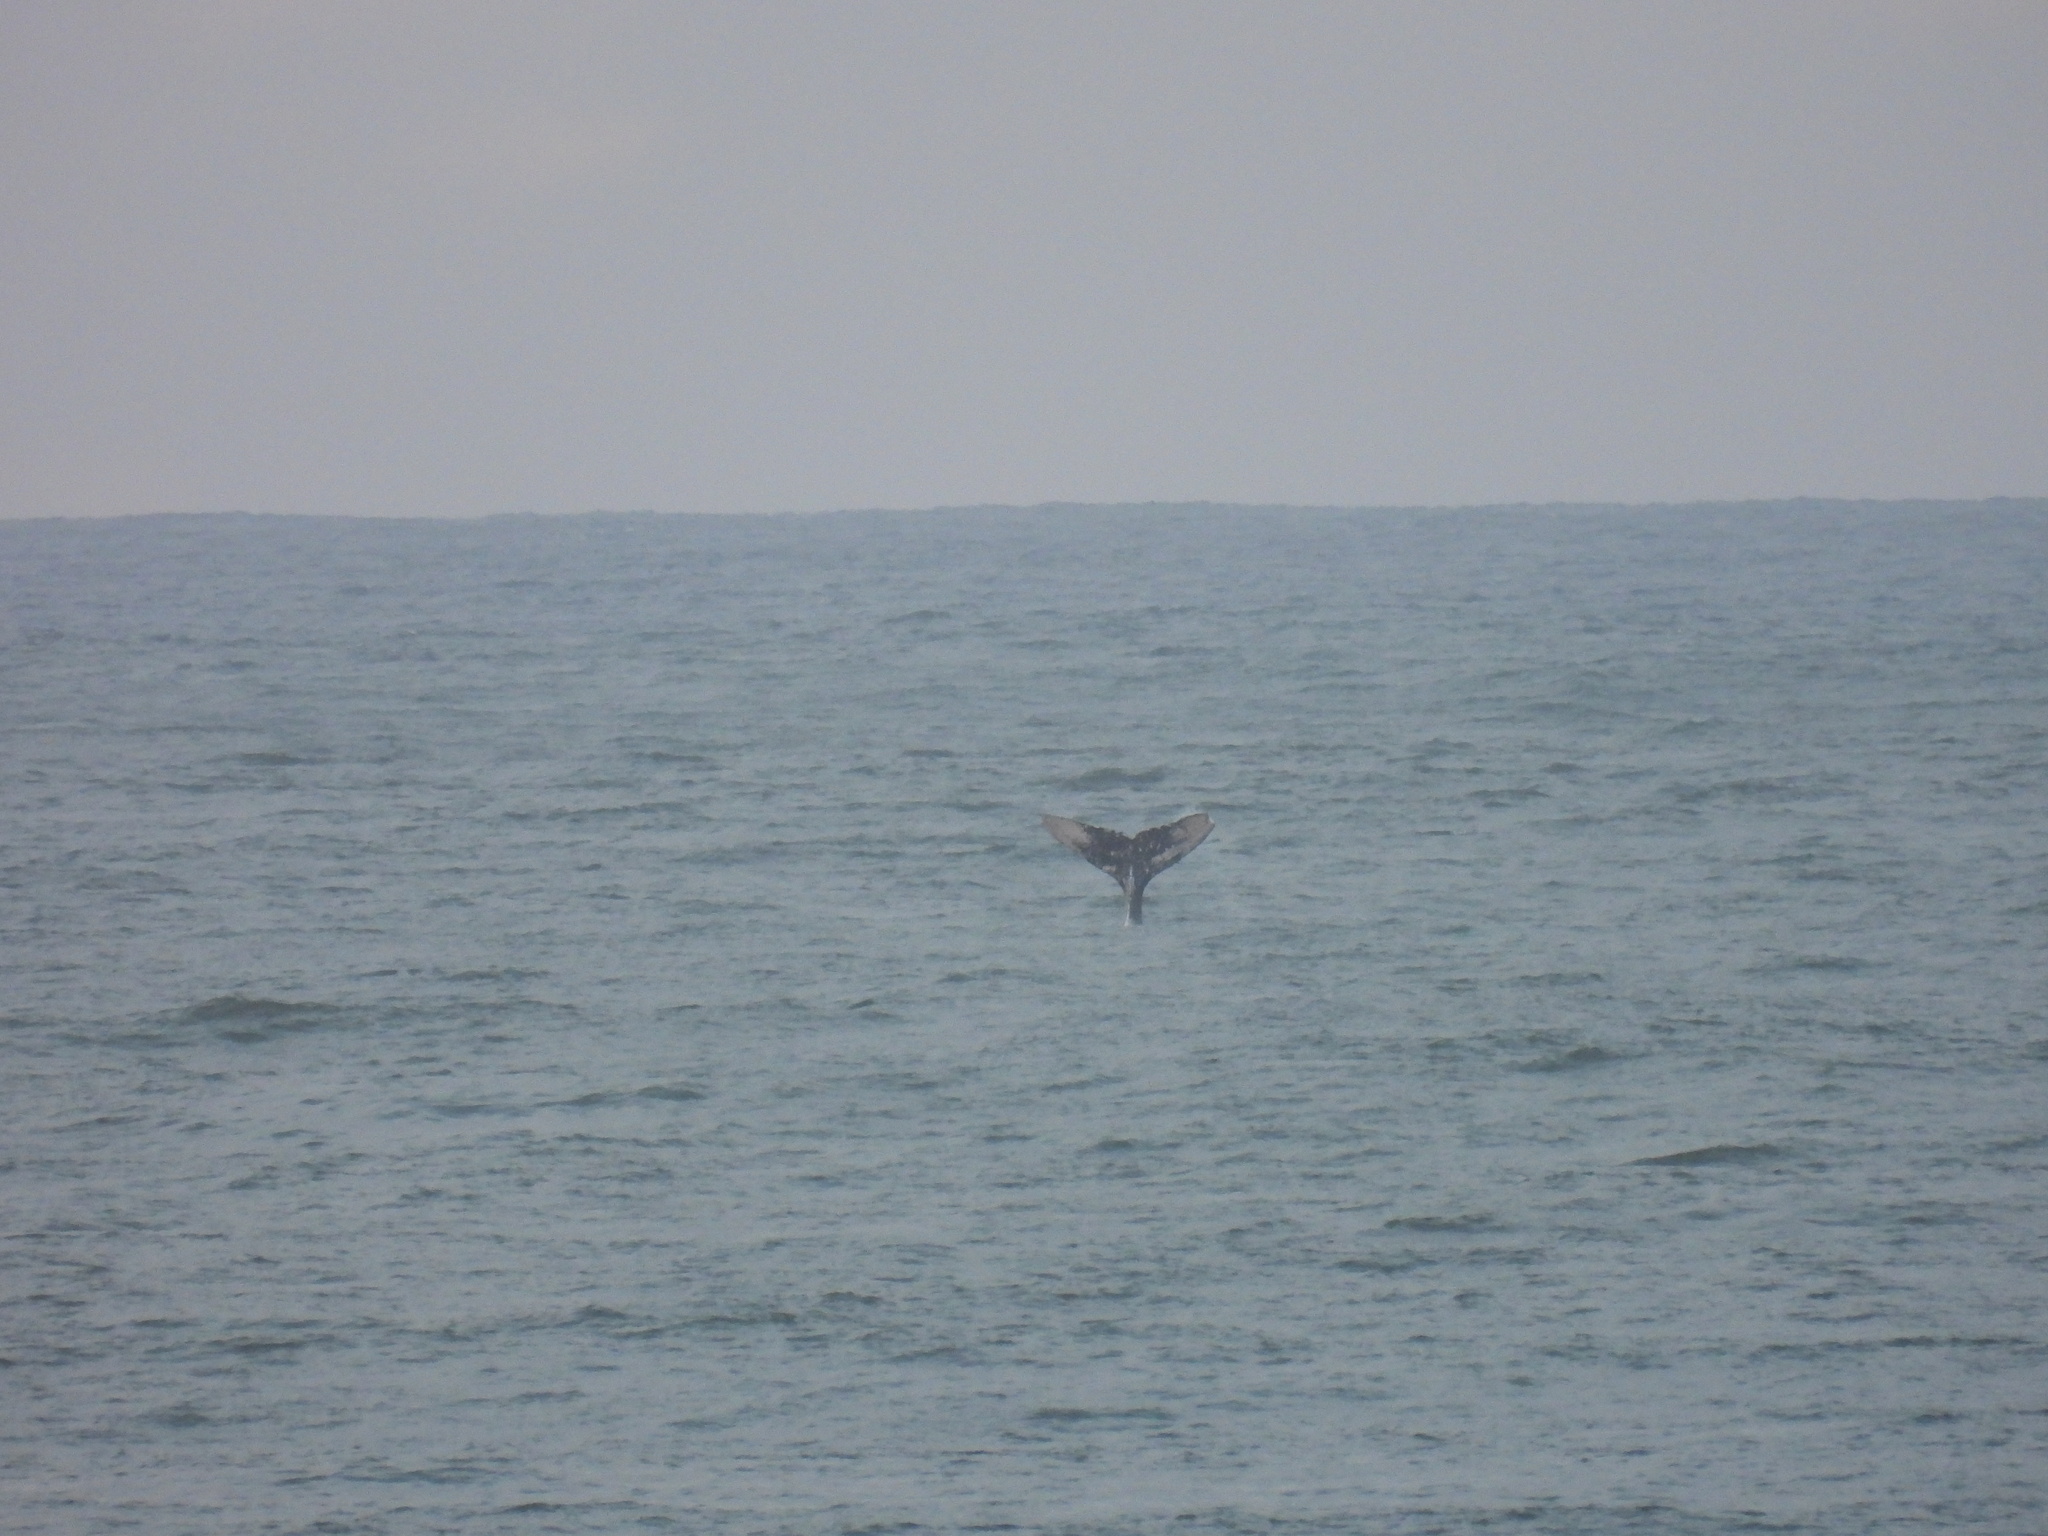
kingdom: Animalia
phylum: Chordata
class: Mammalia
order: Cetacea
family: Balaenopteridae
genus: Megaptera
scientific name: Megaptera novaeangliae
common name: Humpback whale
